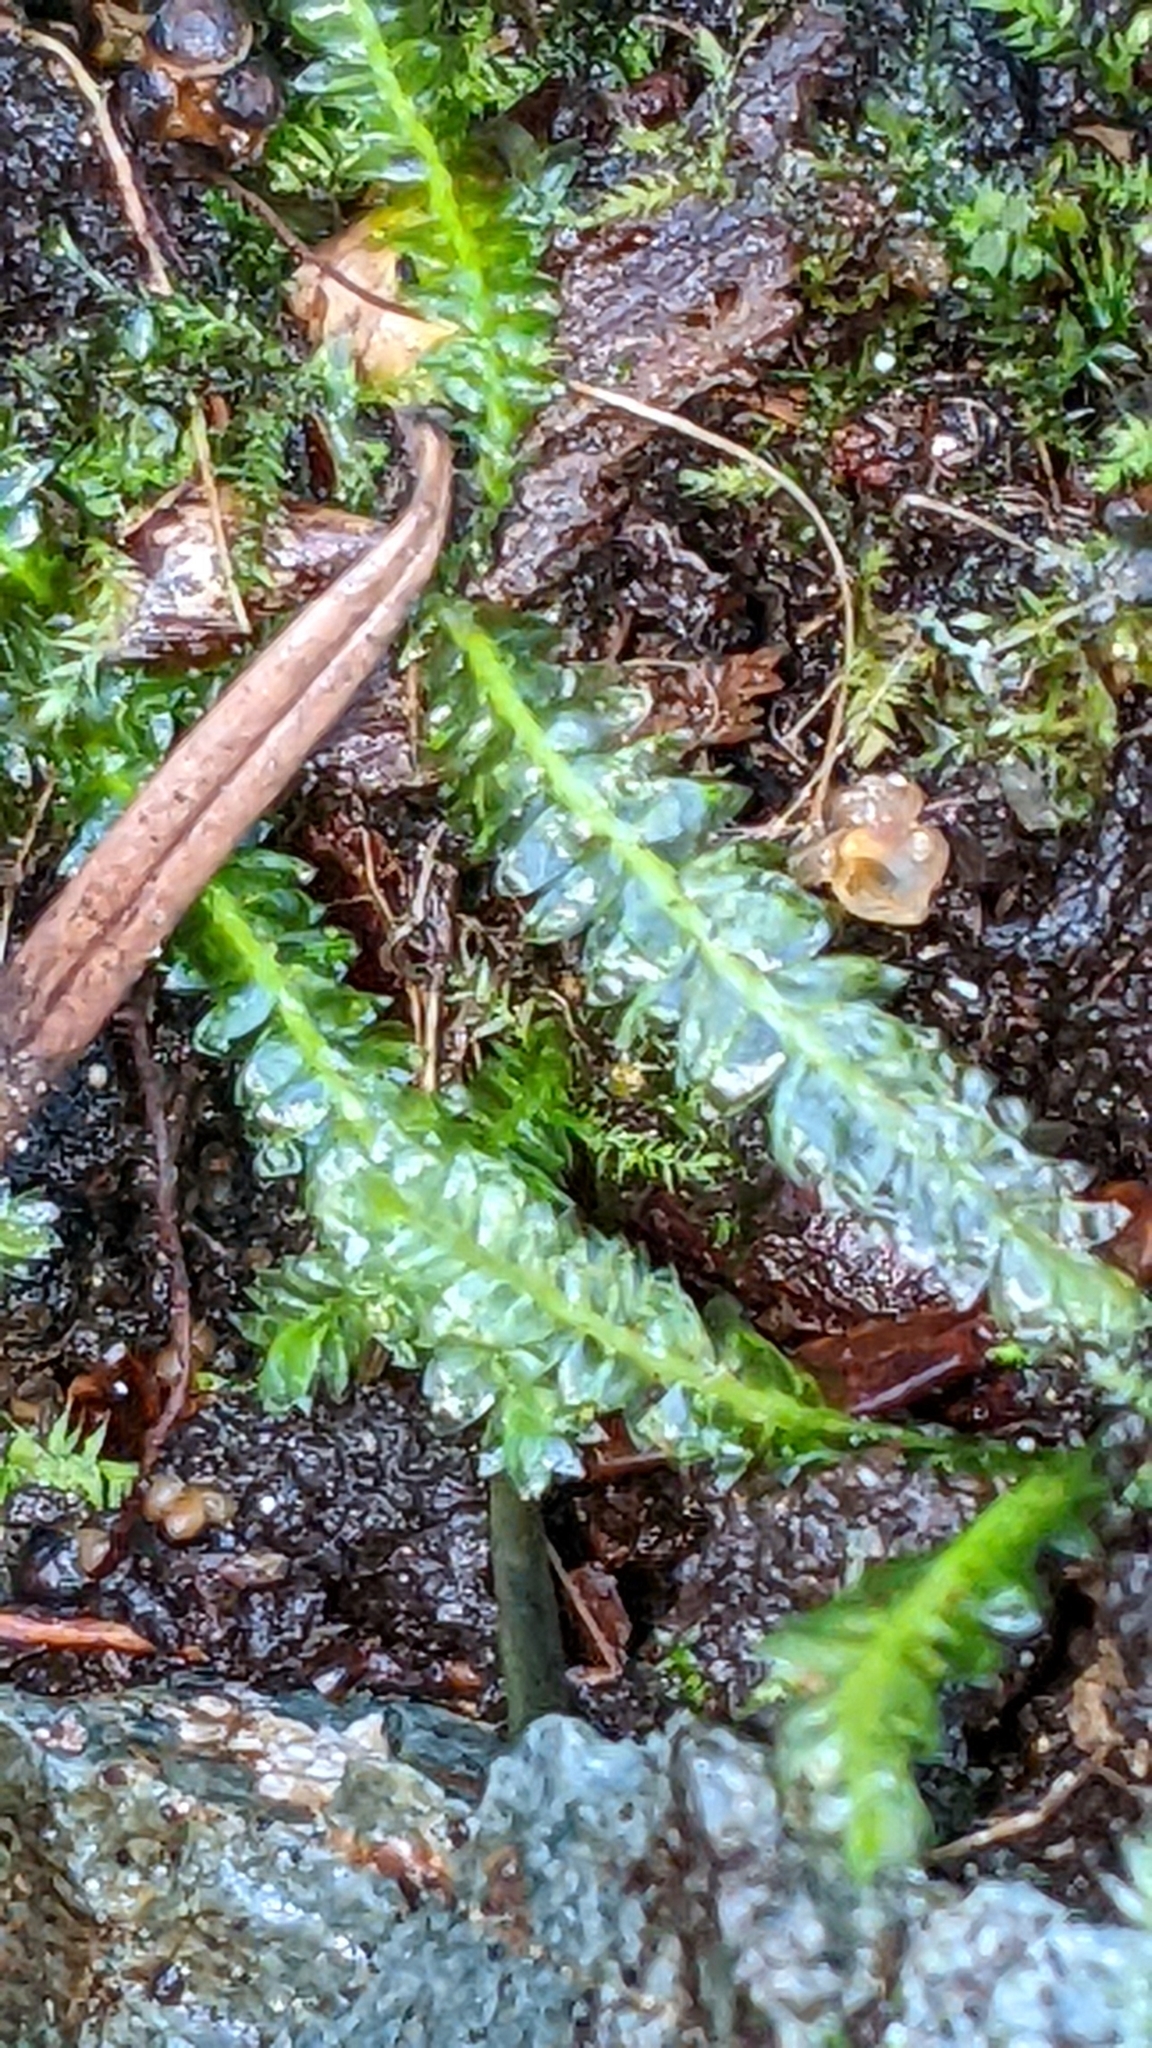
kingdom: Plantae
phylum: Bryophyta
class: Bryopsida
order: Hypnales
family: Plagiotheciaceae
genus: Plagiothecium
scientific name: Plagiothecium undulatum
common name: Waved silk-moss
